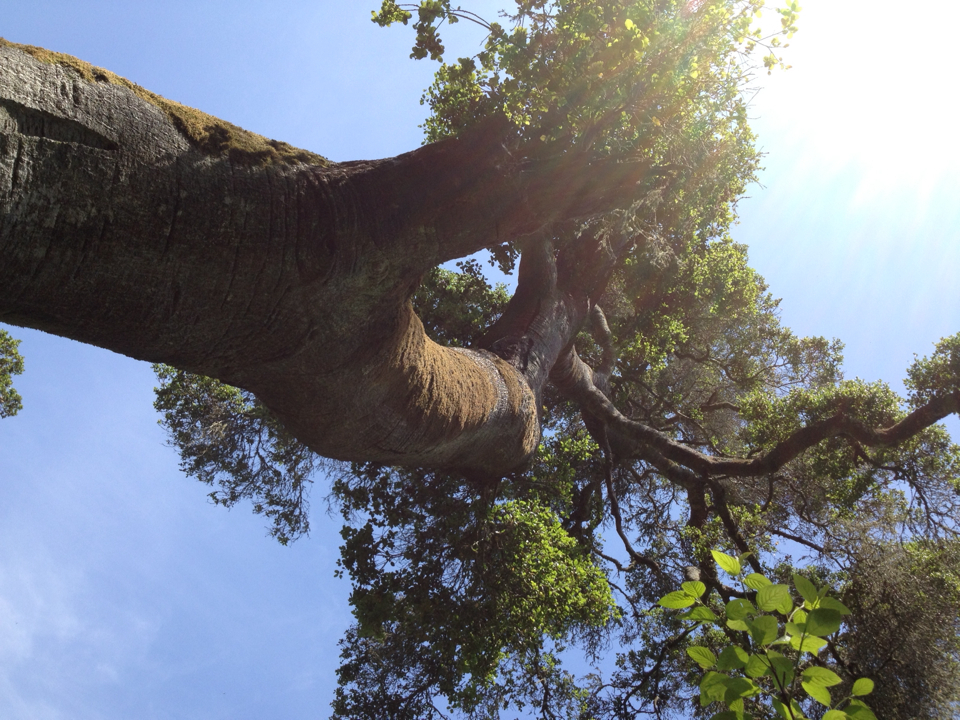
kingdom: Plantae
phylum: Tracheophyta
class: Magnoliopsida
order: Fagales
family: Fagaceae
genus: Quercus
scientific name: Quercus agrifolia
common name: California live oak
